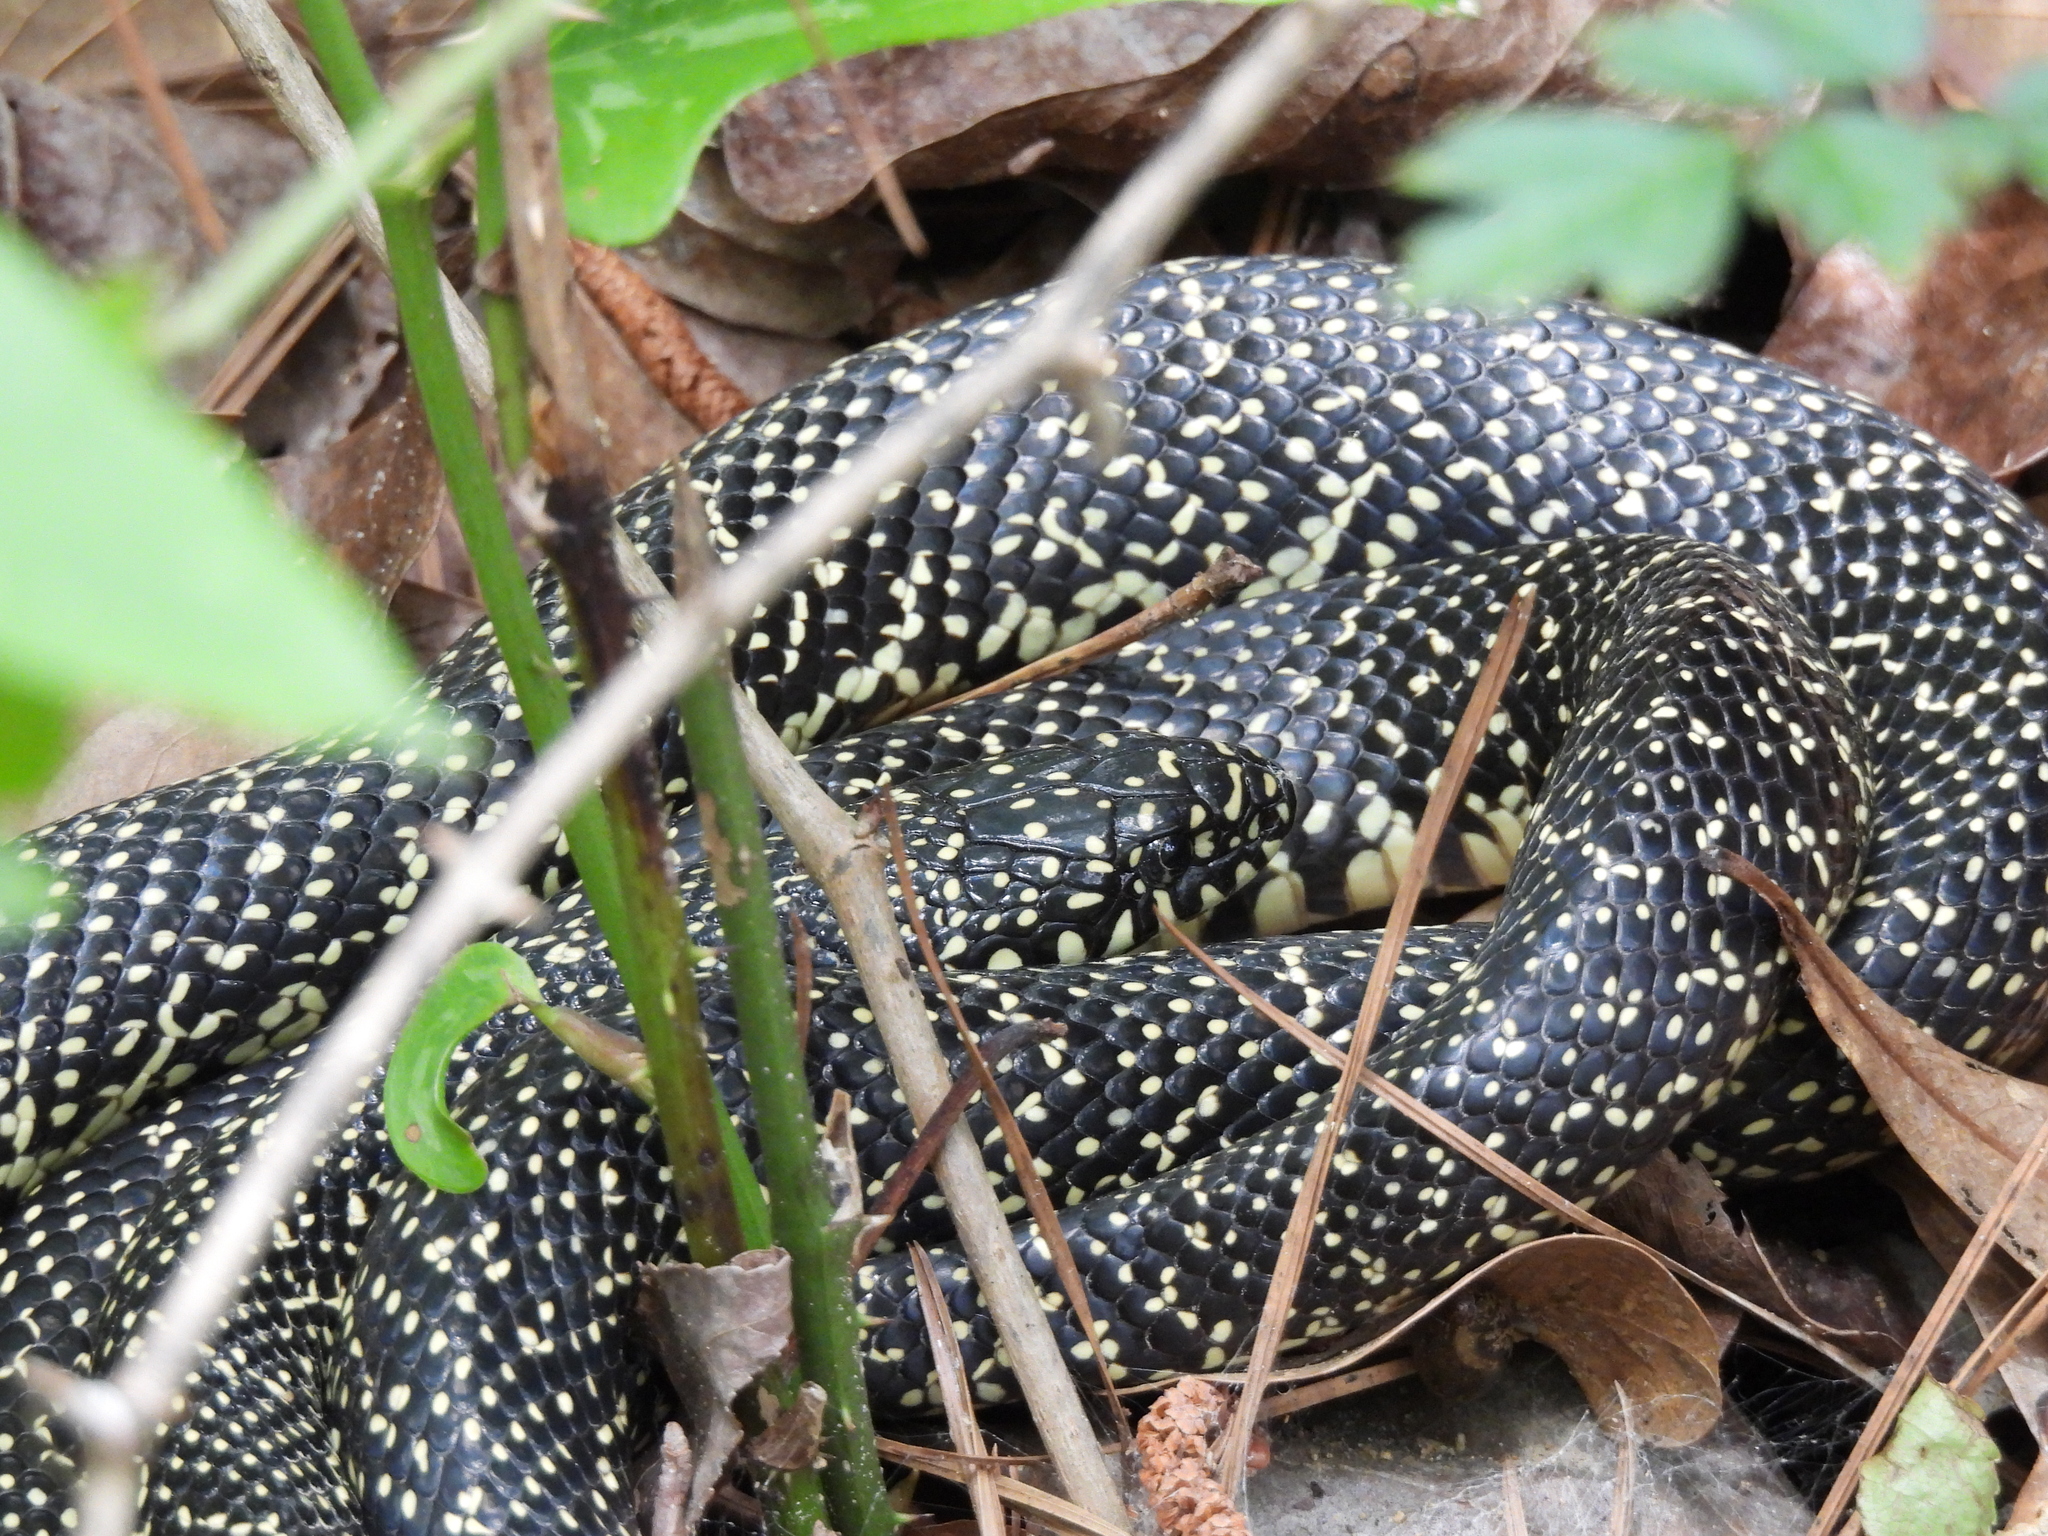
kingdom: Animalia
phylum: Chordata
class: Squamata
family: Colubridae
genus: Lampropeltis
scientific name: Lampropeltis holbrooki
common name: Speckled kingsnake
